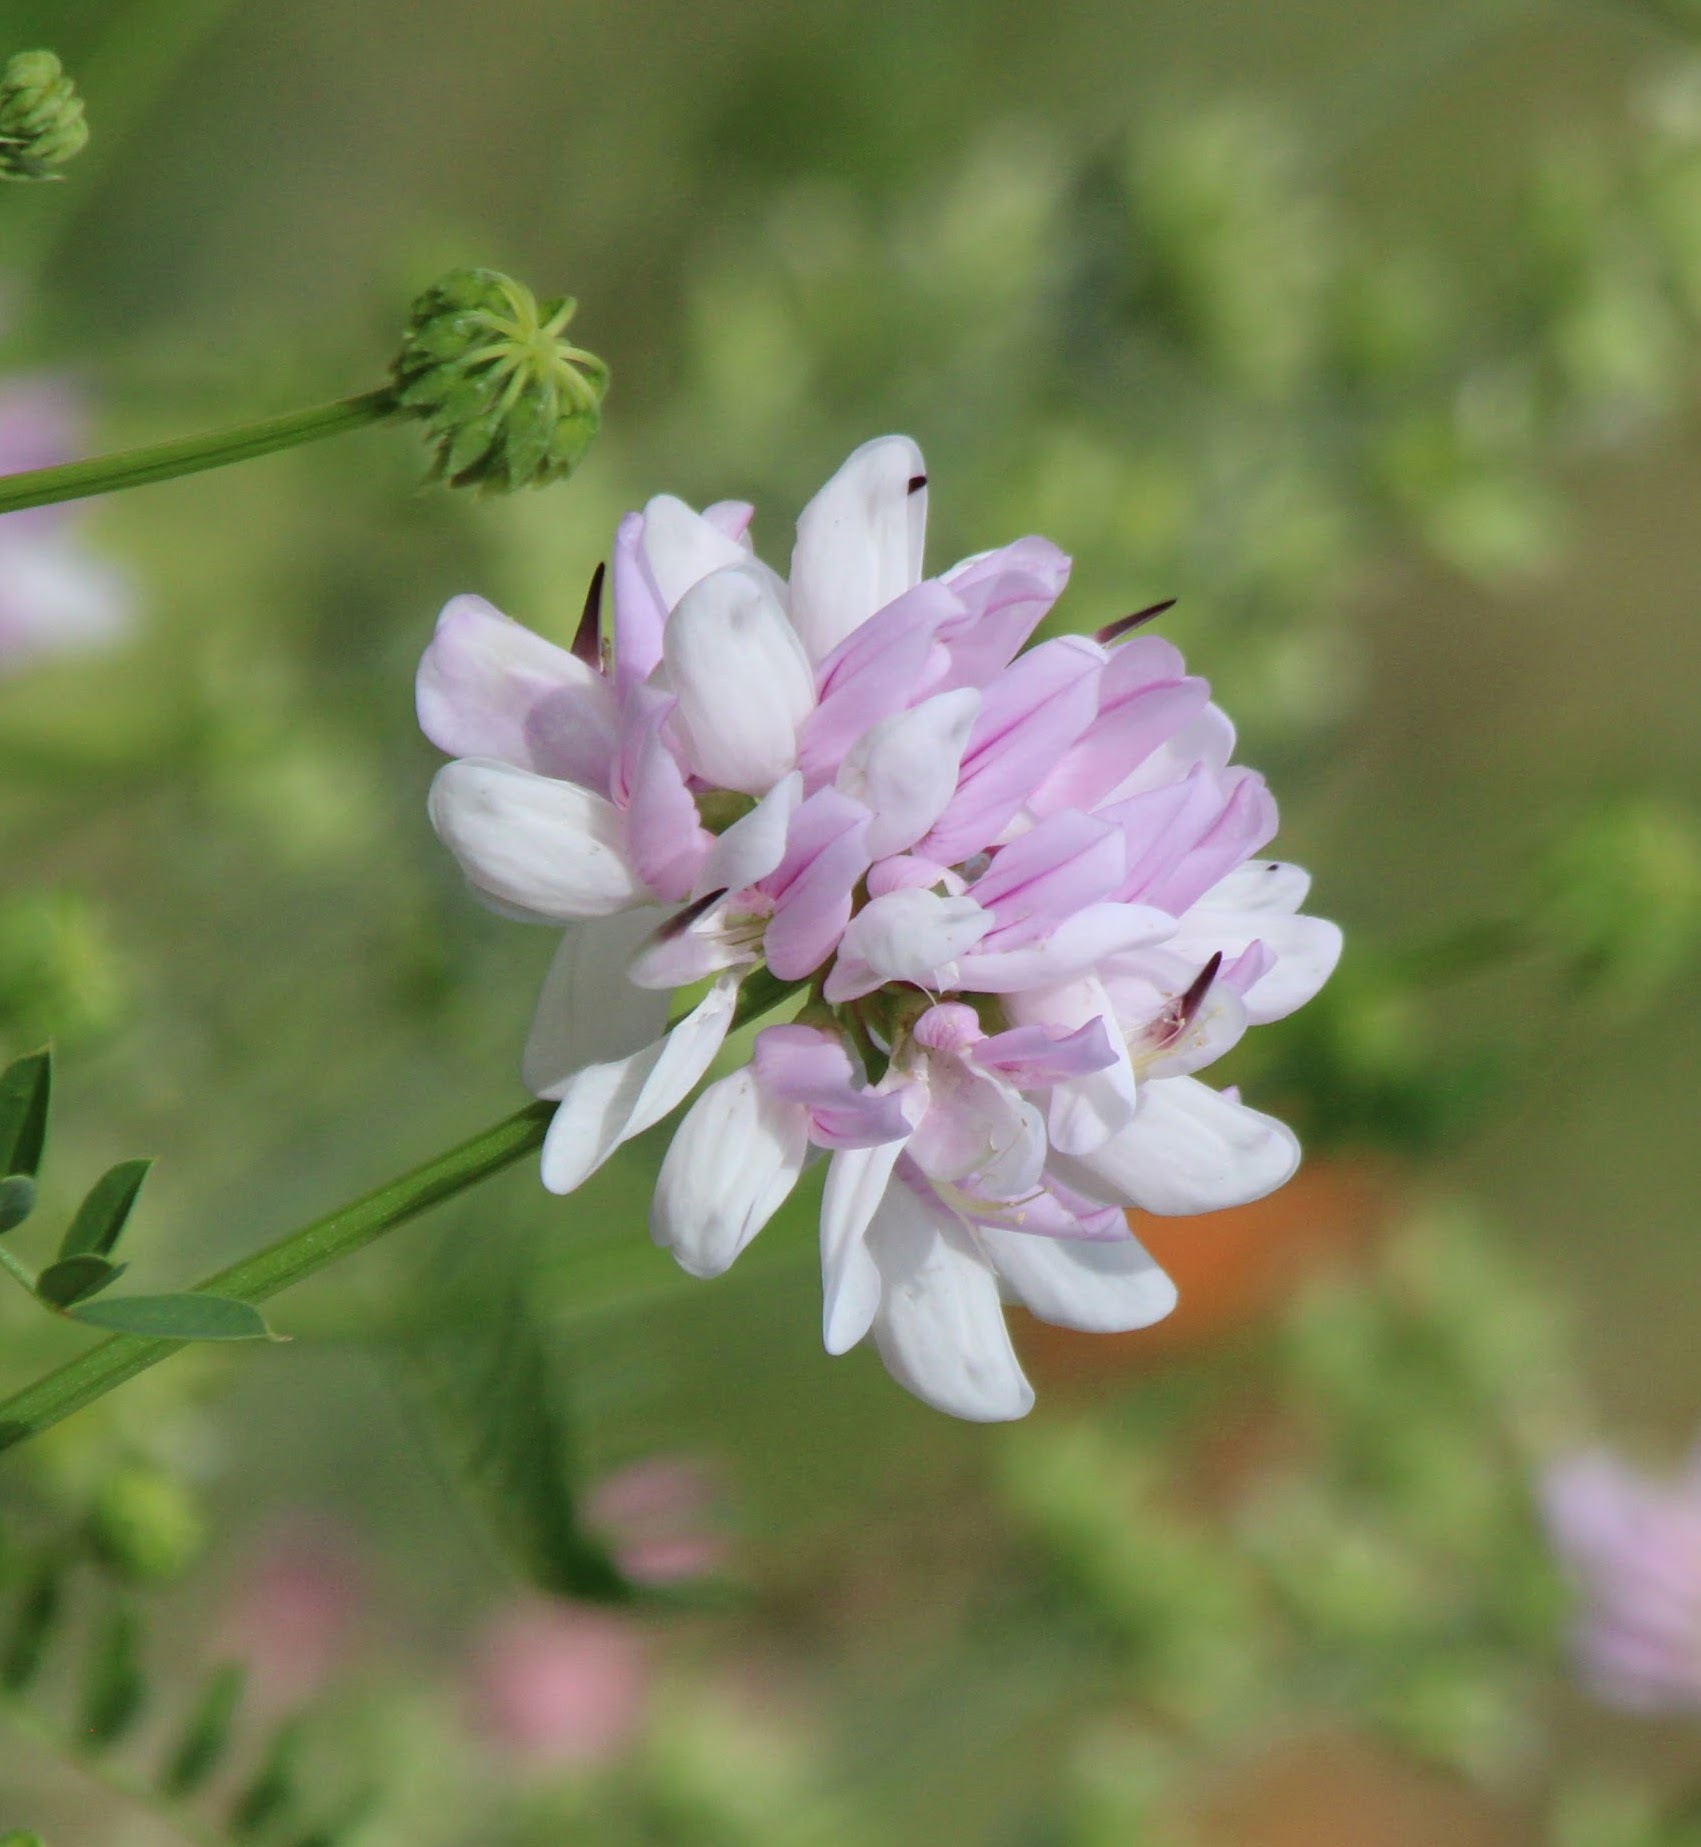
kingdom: Plantae
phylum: Tracheophyta
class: Magnoliopsida
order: Fabales
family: Fabaceae
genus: Coronilla
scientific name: Coronilla varia
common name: Crownvetch
